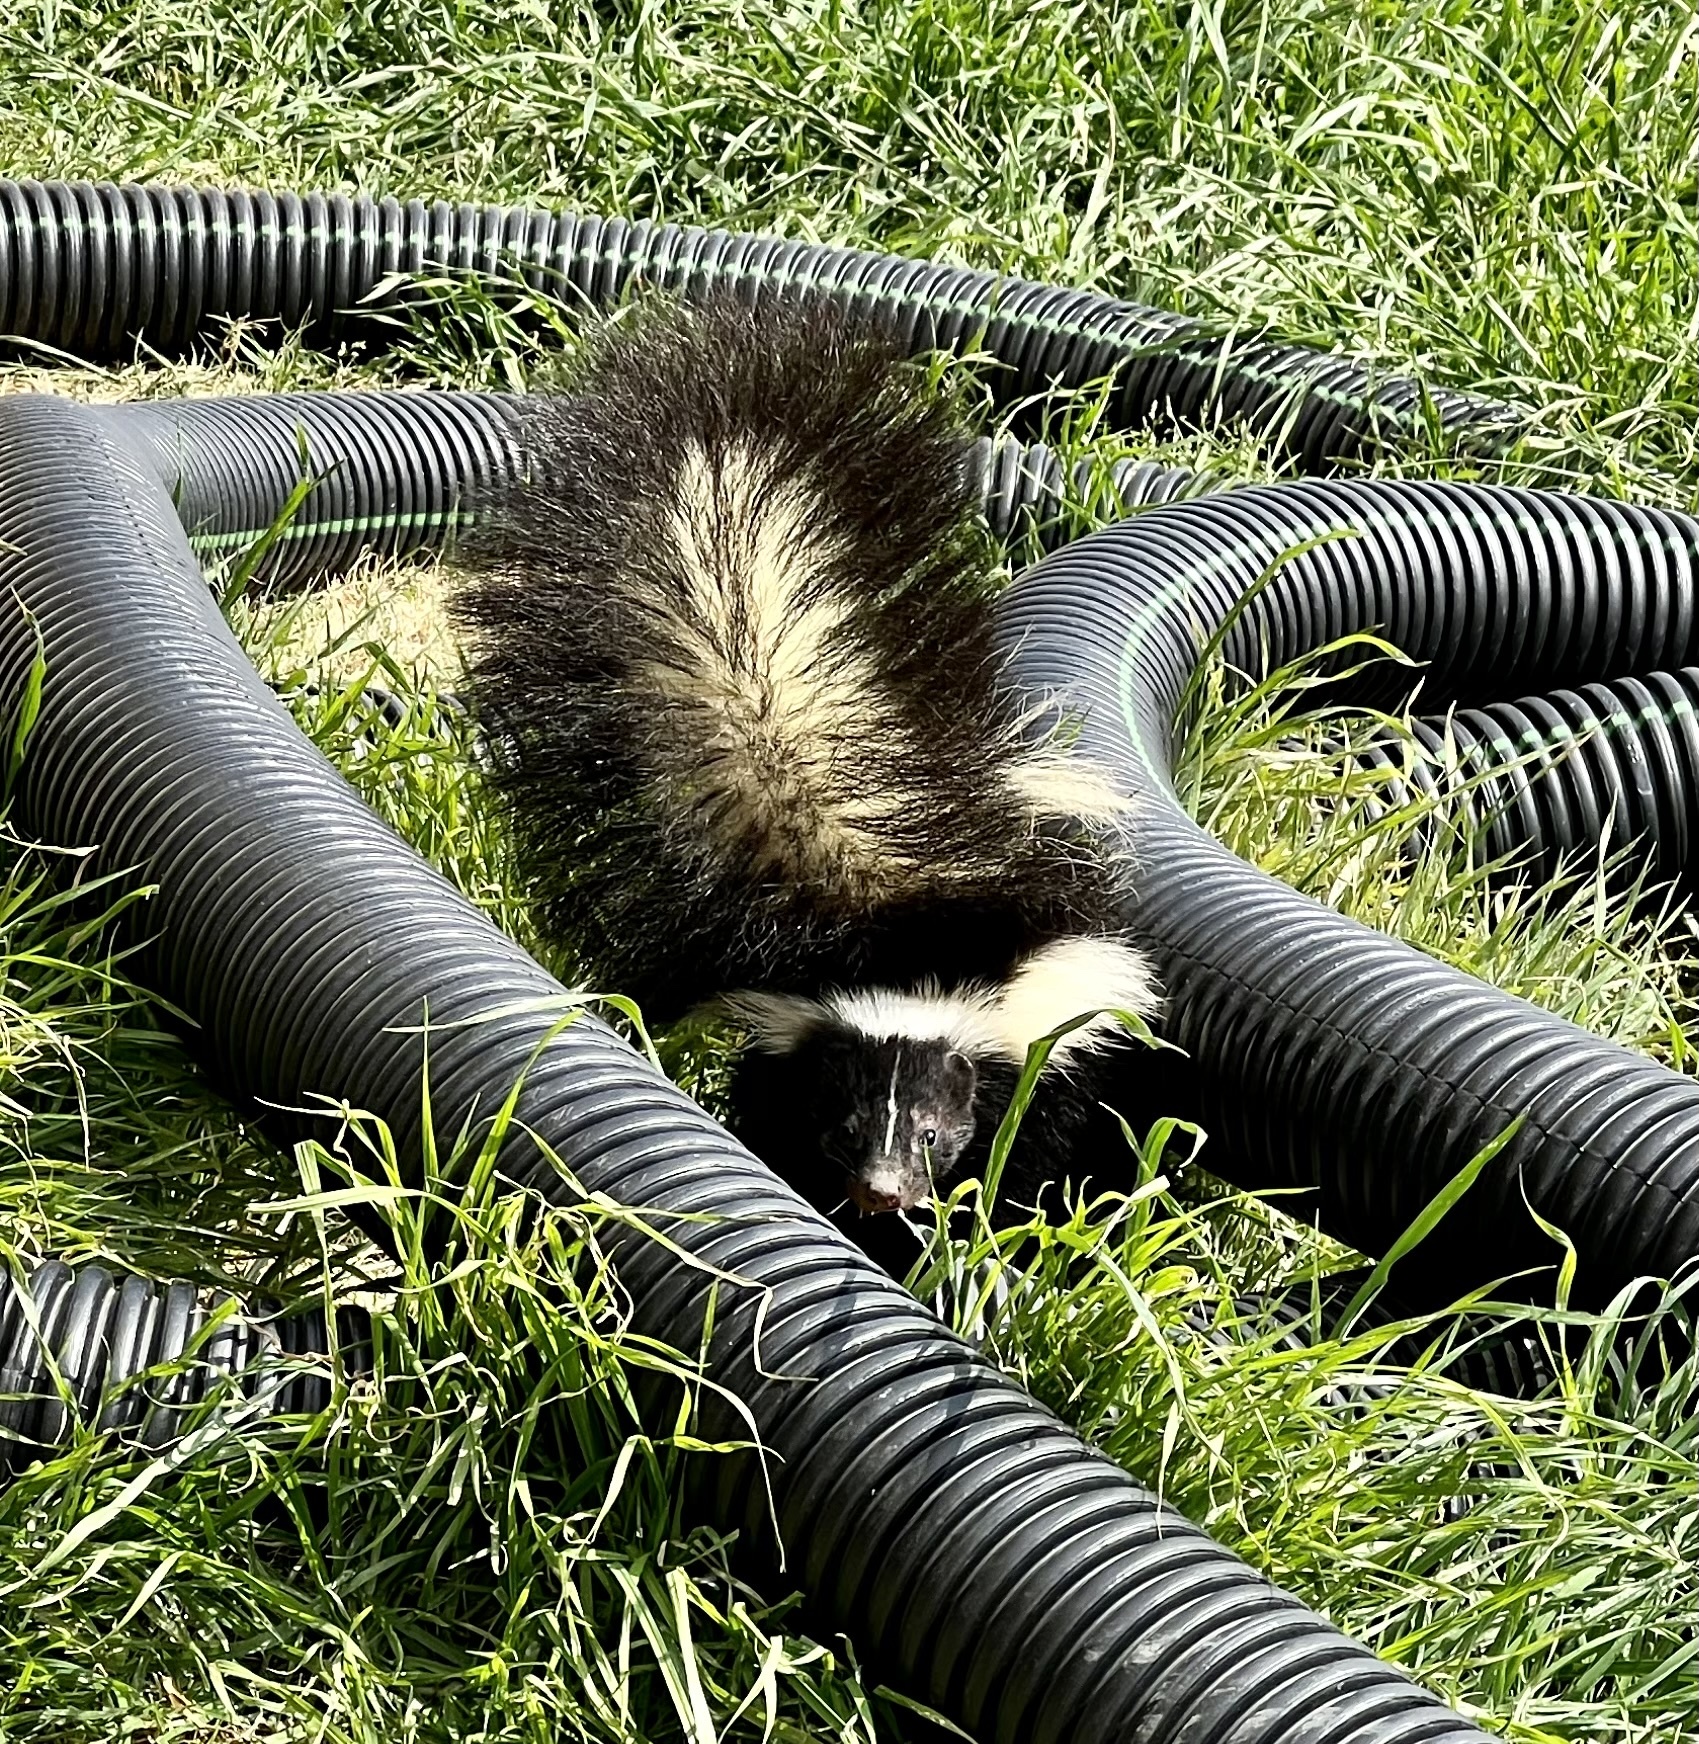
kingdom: Animalia
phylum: Chordata
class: Mammalia
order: Carnivora
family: Mephitidae
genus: Mephitis
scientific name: Mephitis mephitis
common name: Striped skunk
